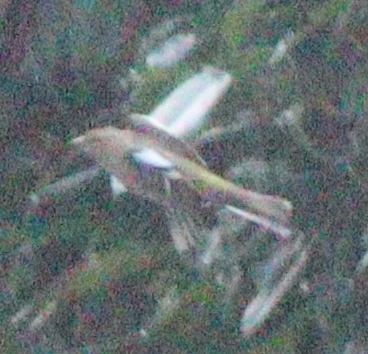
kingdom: Animalia
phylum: Chordata
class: Aves
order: Passeriformes
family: Fringillidae
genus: Fringilla
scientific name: Fringilla coelebs
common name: Common chaffinch
